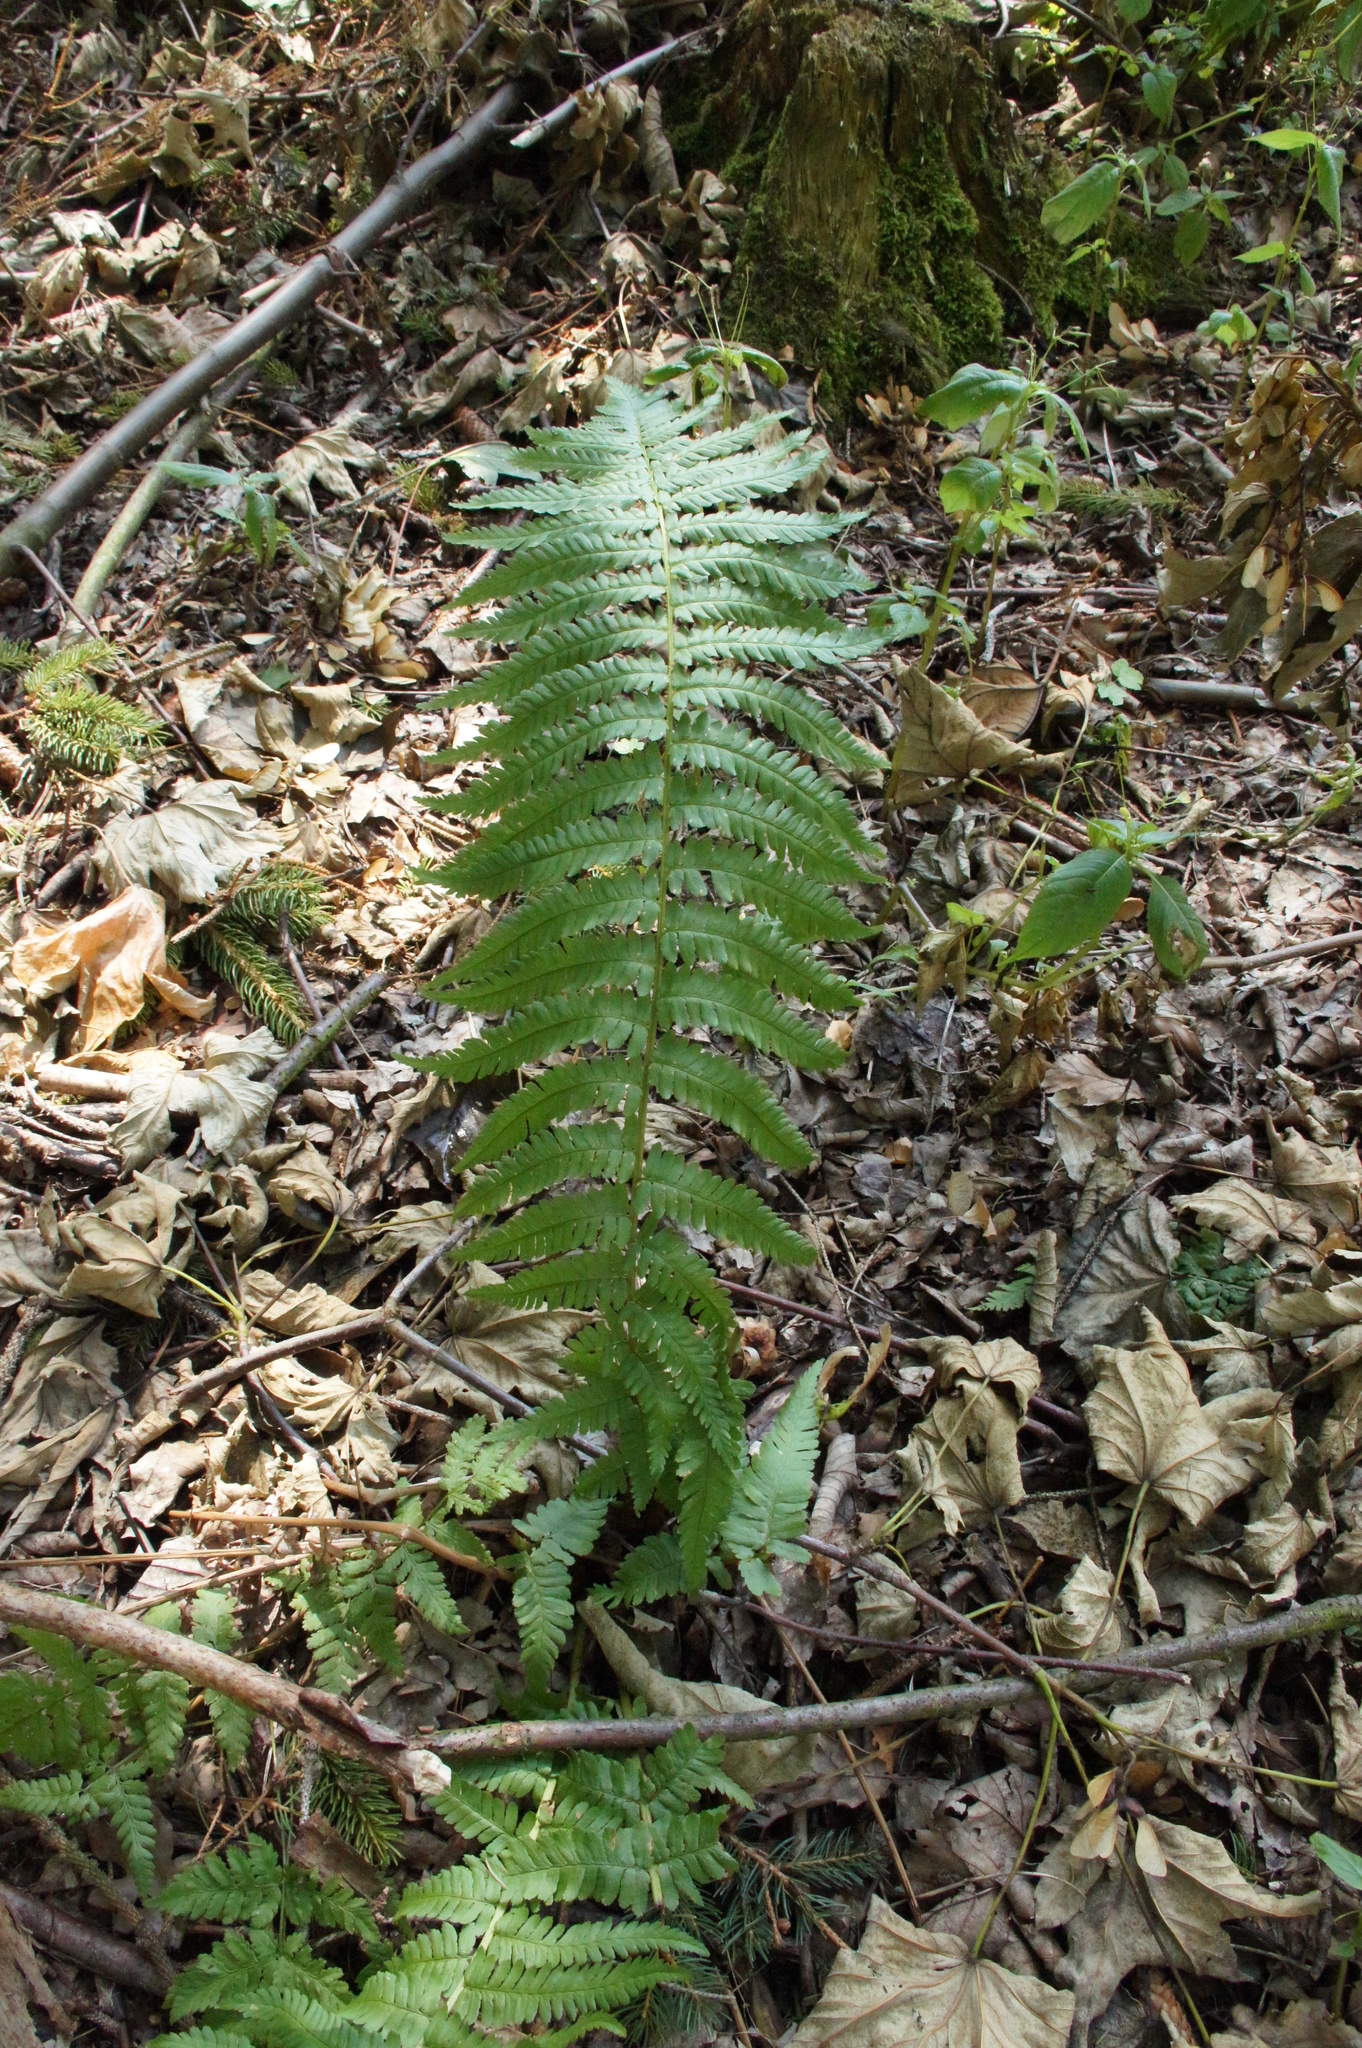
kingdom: Plantae
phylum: Tracheophyta
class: Polypodiopsida
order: Polypodiales
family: Dryopteridaceae
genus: Dryopteris
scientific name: Dryopteris filix-mas
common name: Male fern
